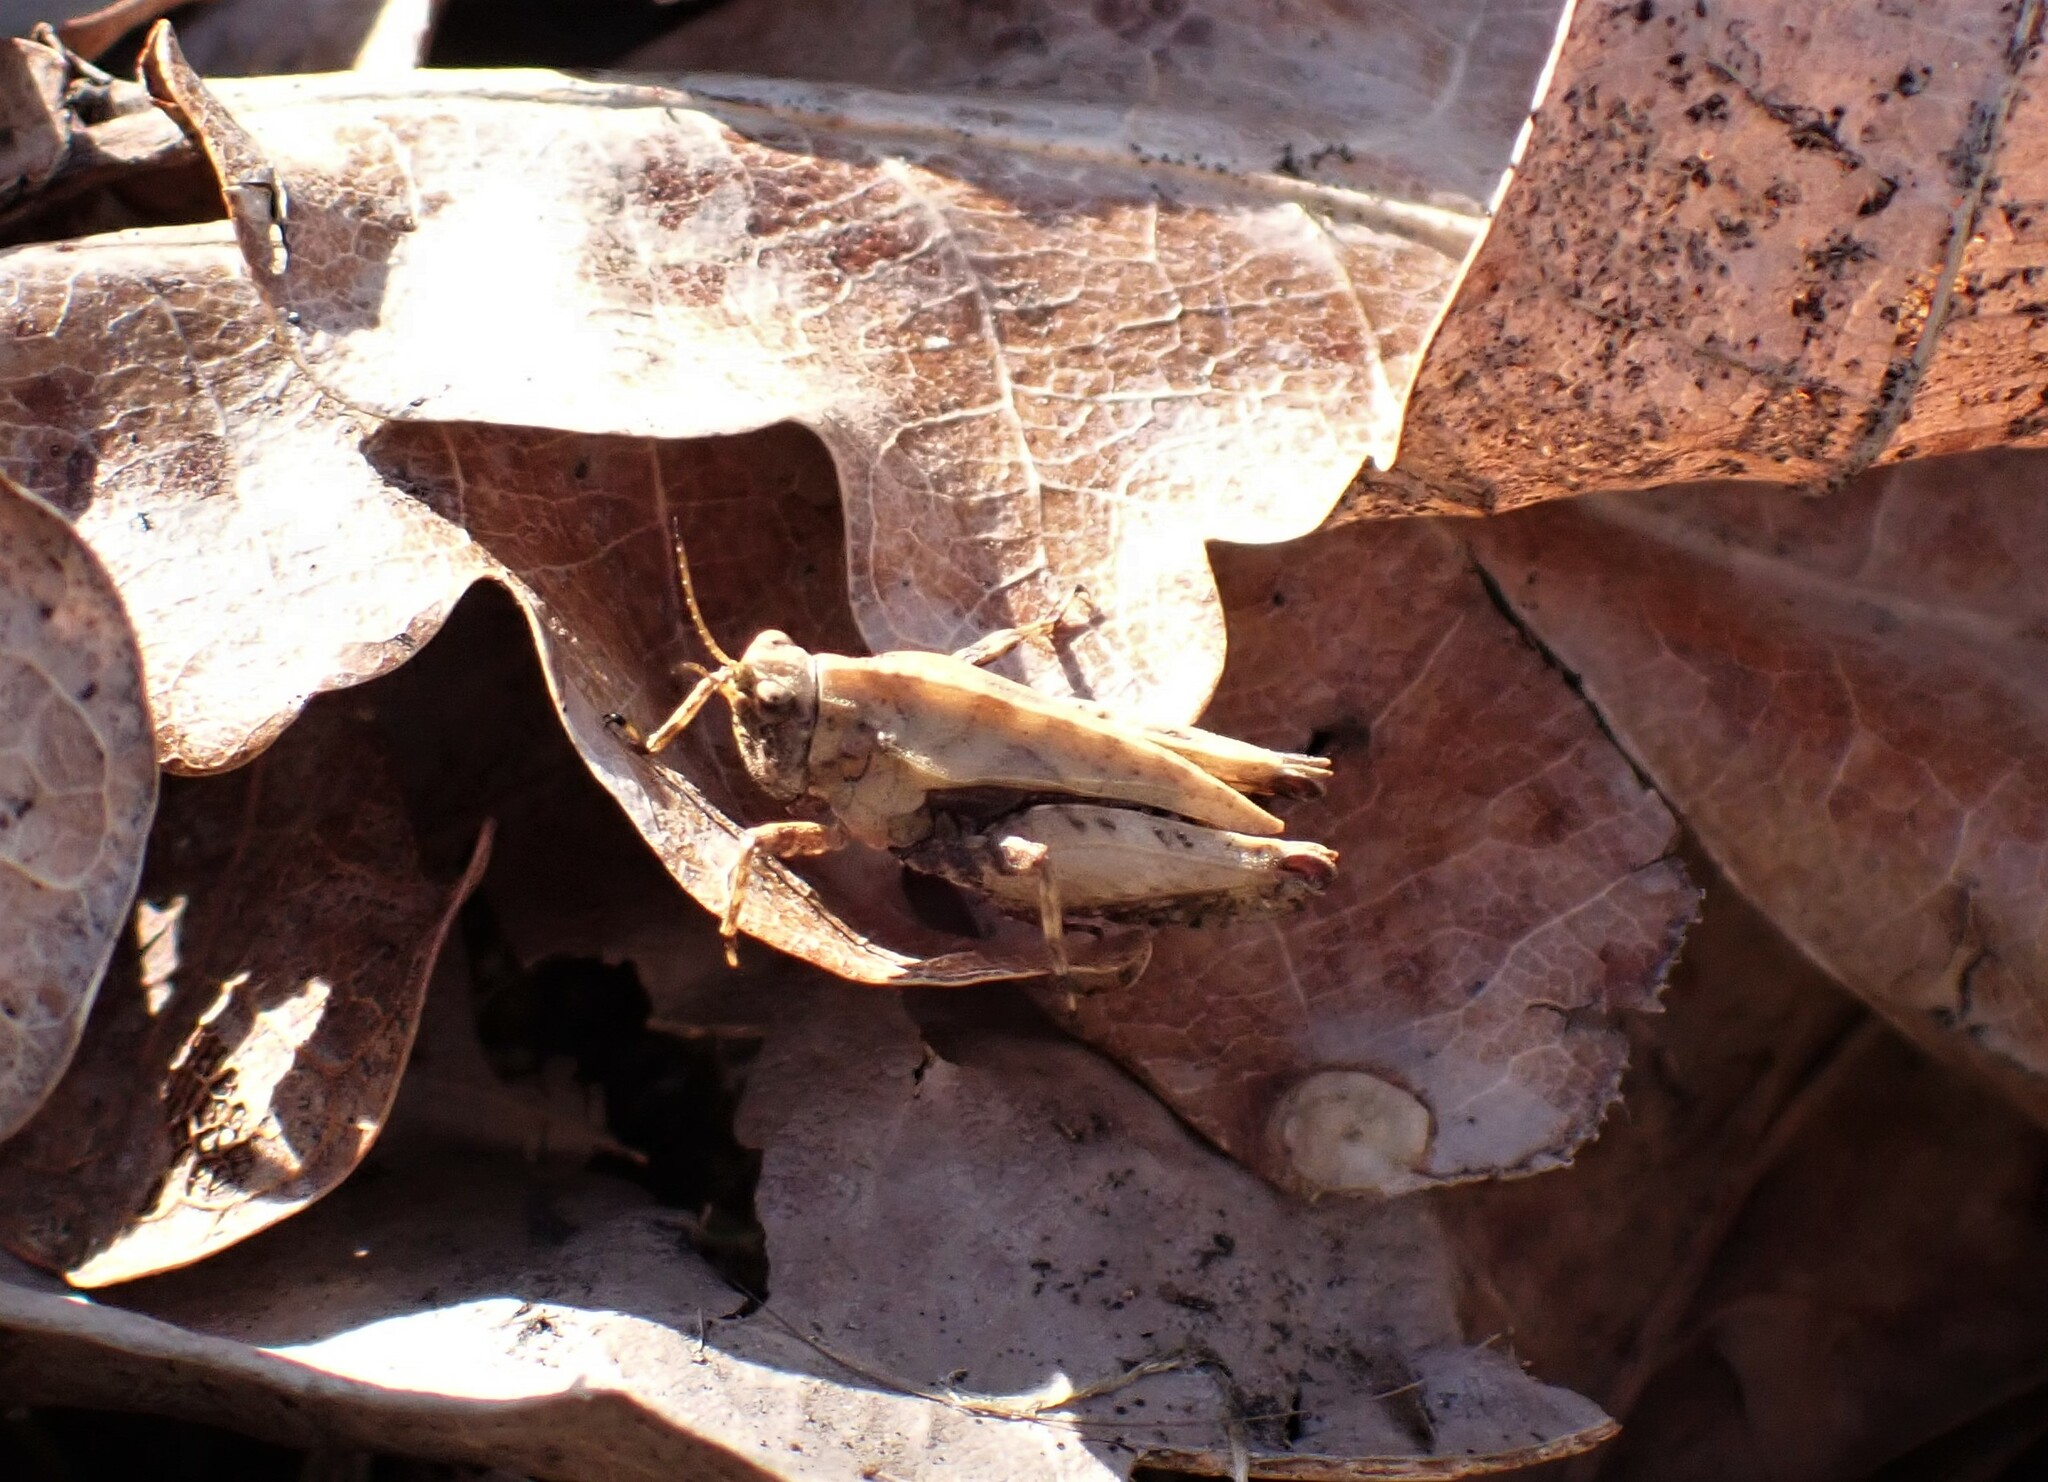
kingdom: Animalia
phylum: Arthropoda
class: Insecta
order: Orthoptera
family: Tetrigidae
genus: Tetrix
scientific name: Tetrix undulata
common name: Common groundhopper
